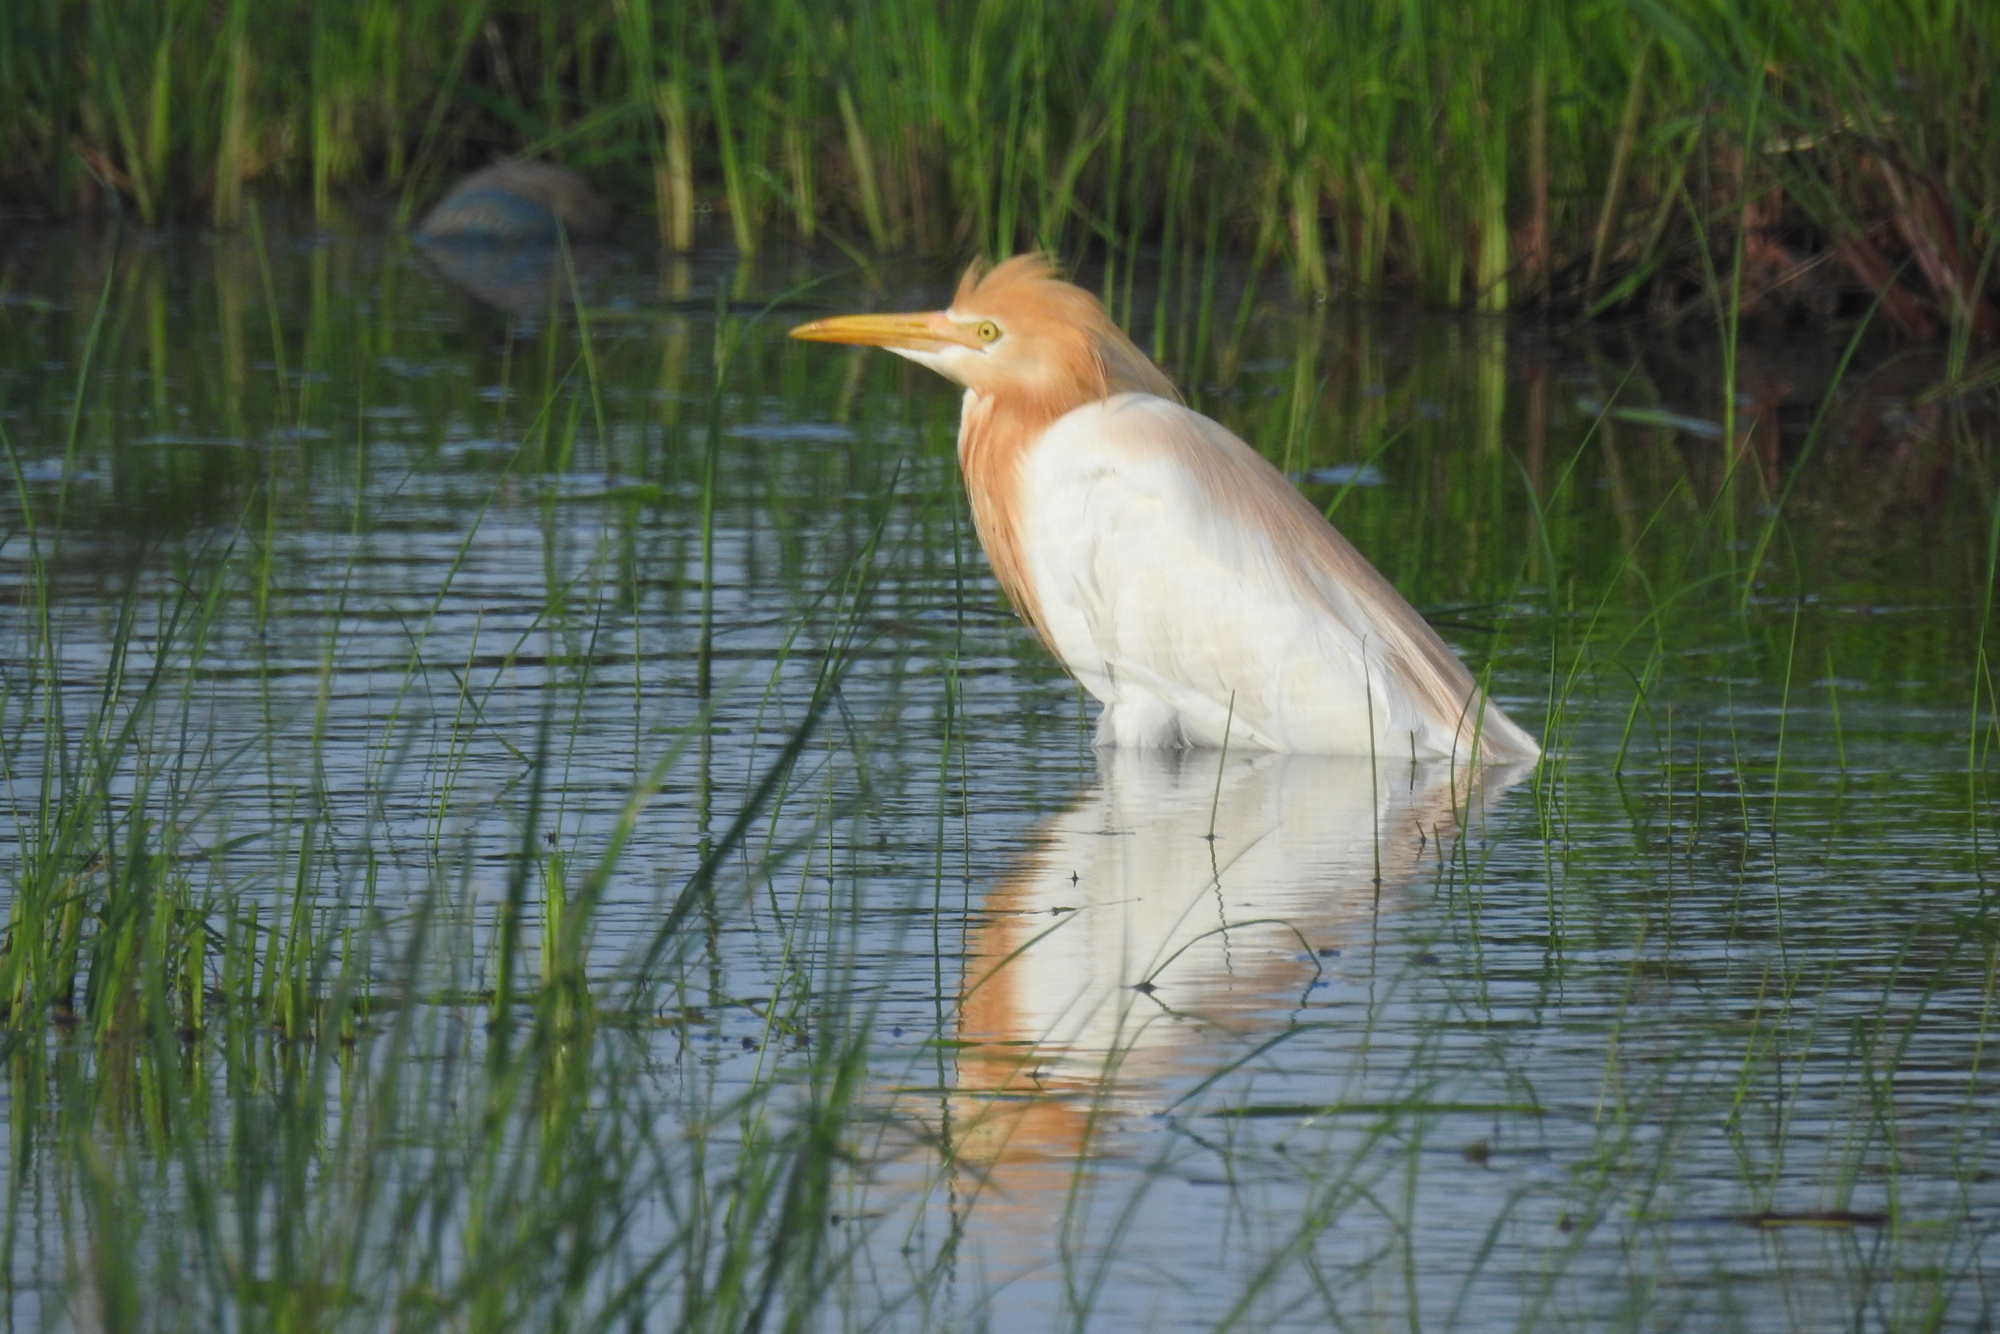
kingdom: Animalia
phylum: Chordata
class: Aves
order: Pelecaniformes
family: Ardeidae
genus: Bubulcus
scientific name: Bubulcus coromandus
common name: Eastern cattle egret
